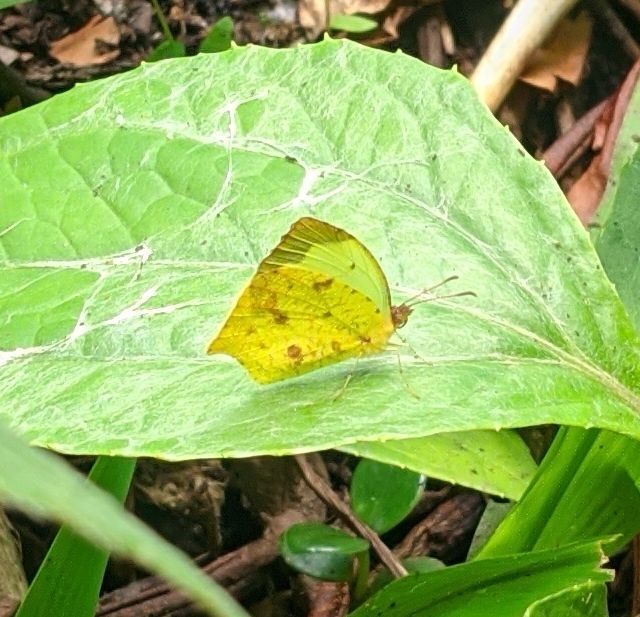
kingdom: Animalia
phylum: Arthropoda
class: Insecta
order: Lepidoptera
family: Pieridae
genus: Abaeis
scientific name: Abaeis salome
